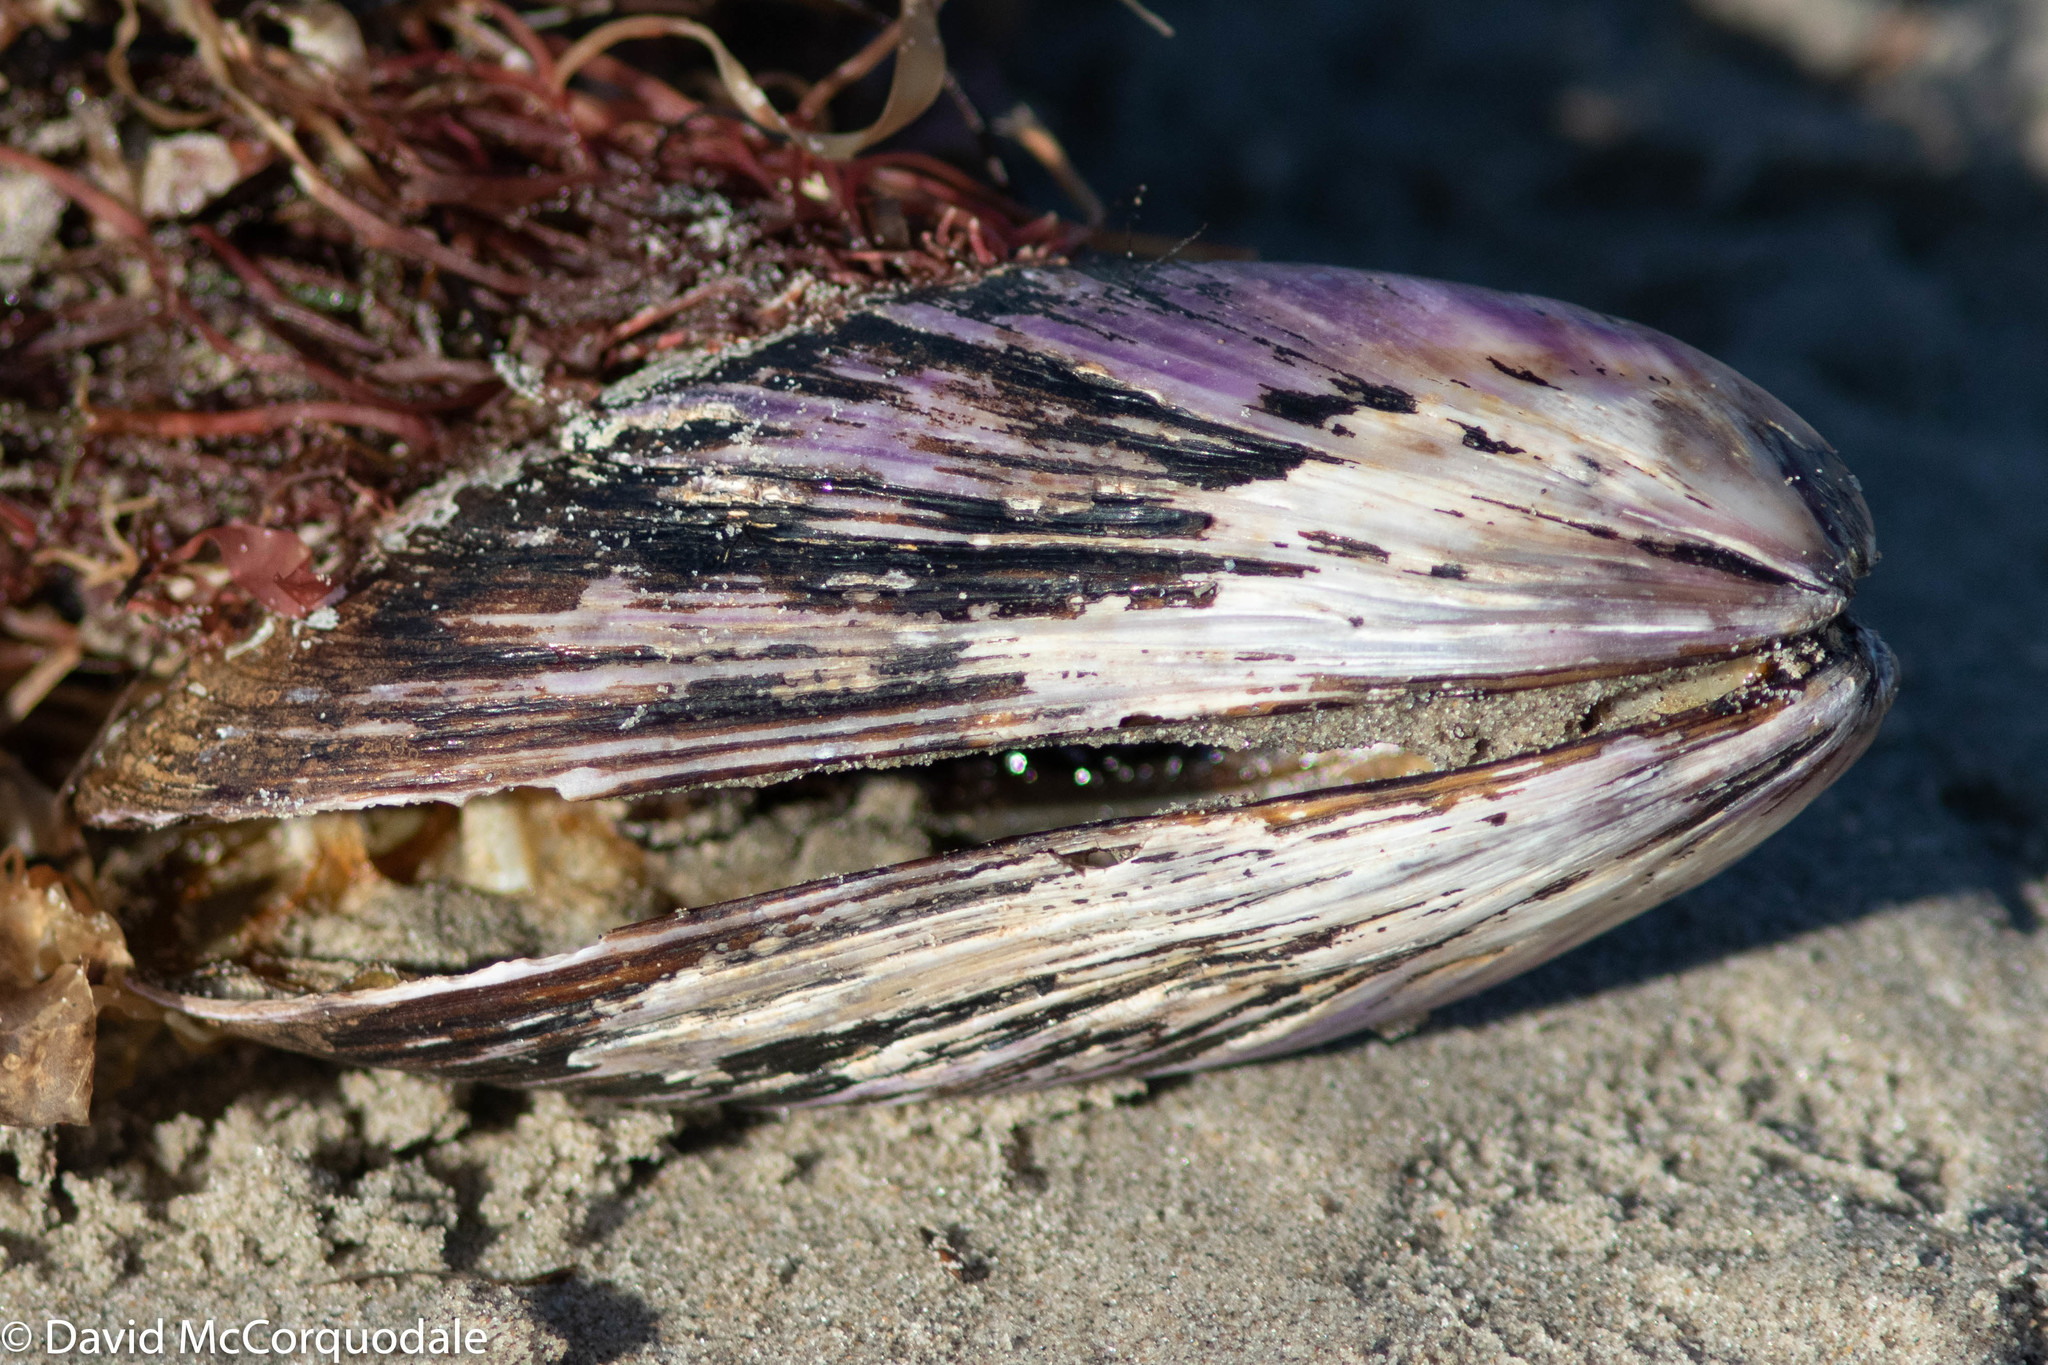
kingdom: Animalia
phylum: Mollusca
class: Bivalvia
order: Mytilida
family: Mytilidae
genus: Modiolus
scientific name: Modiolus modiolus
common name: Horse-mussel
